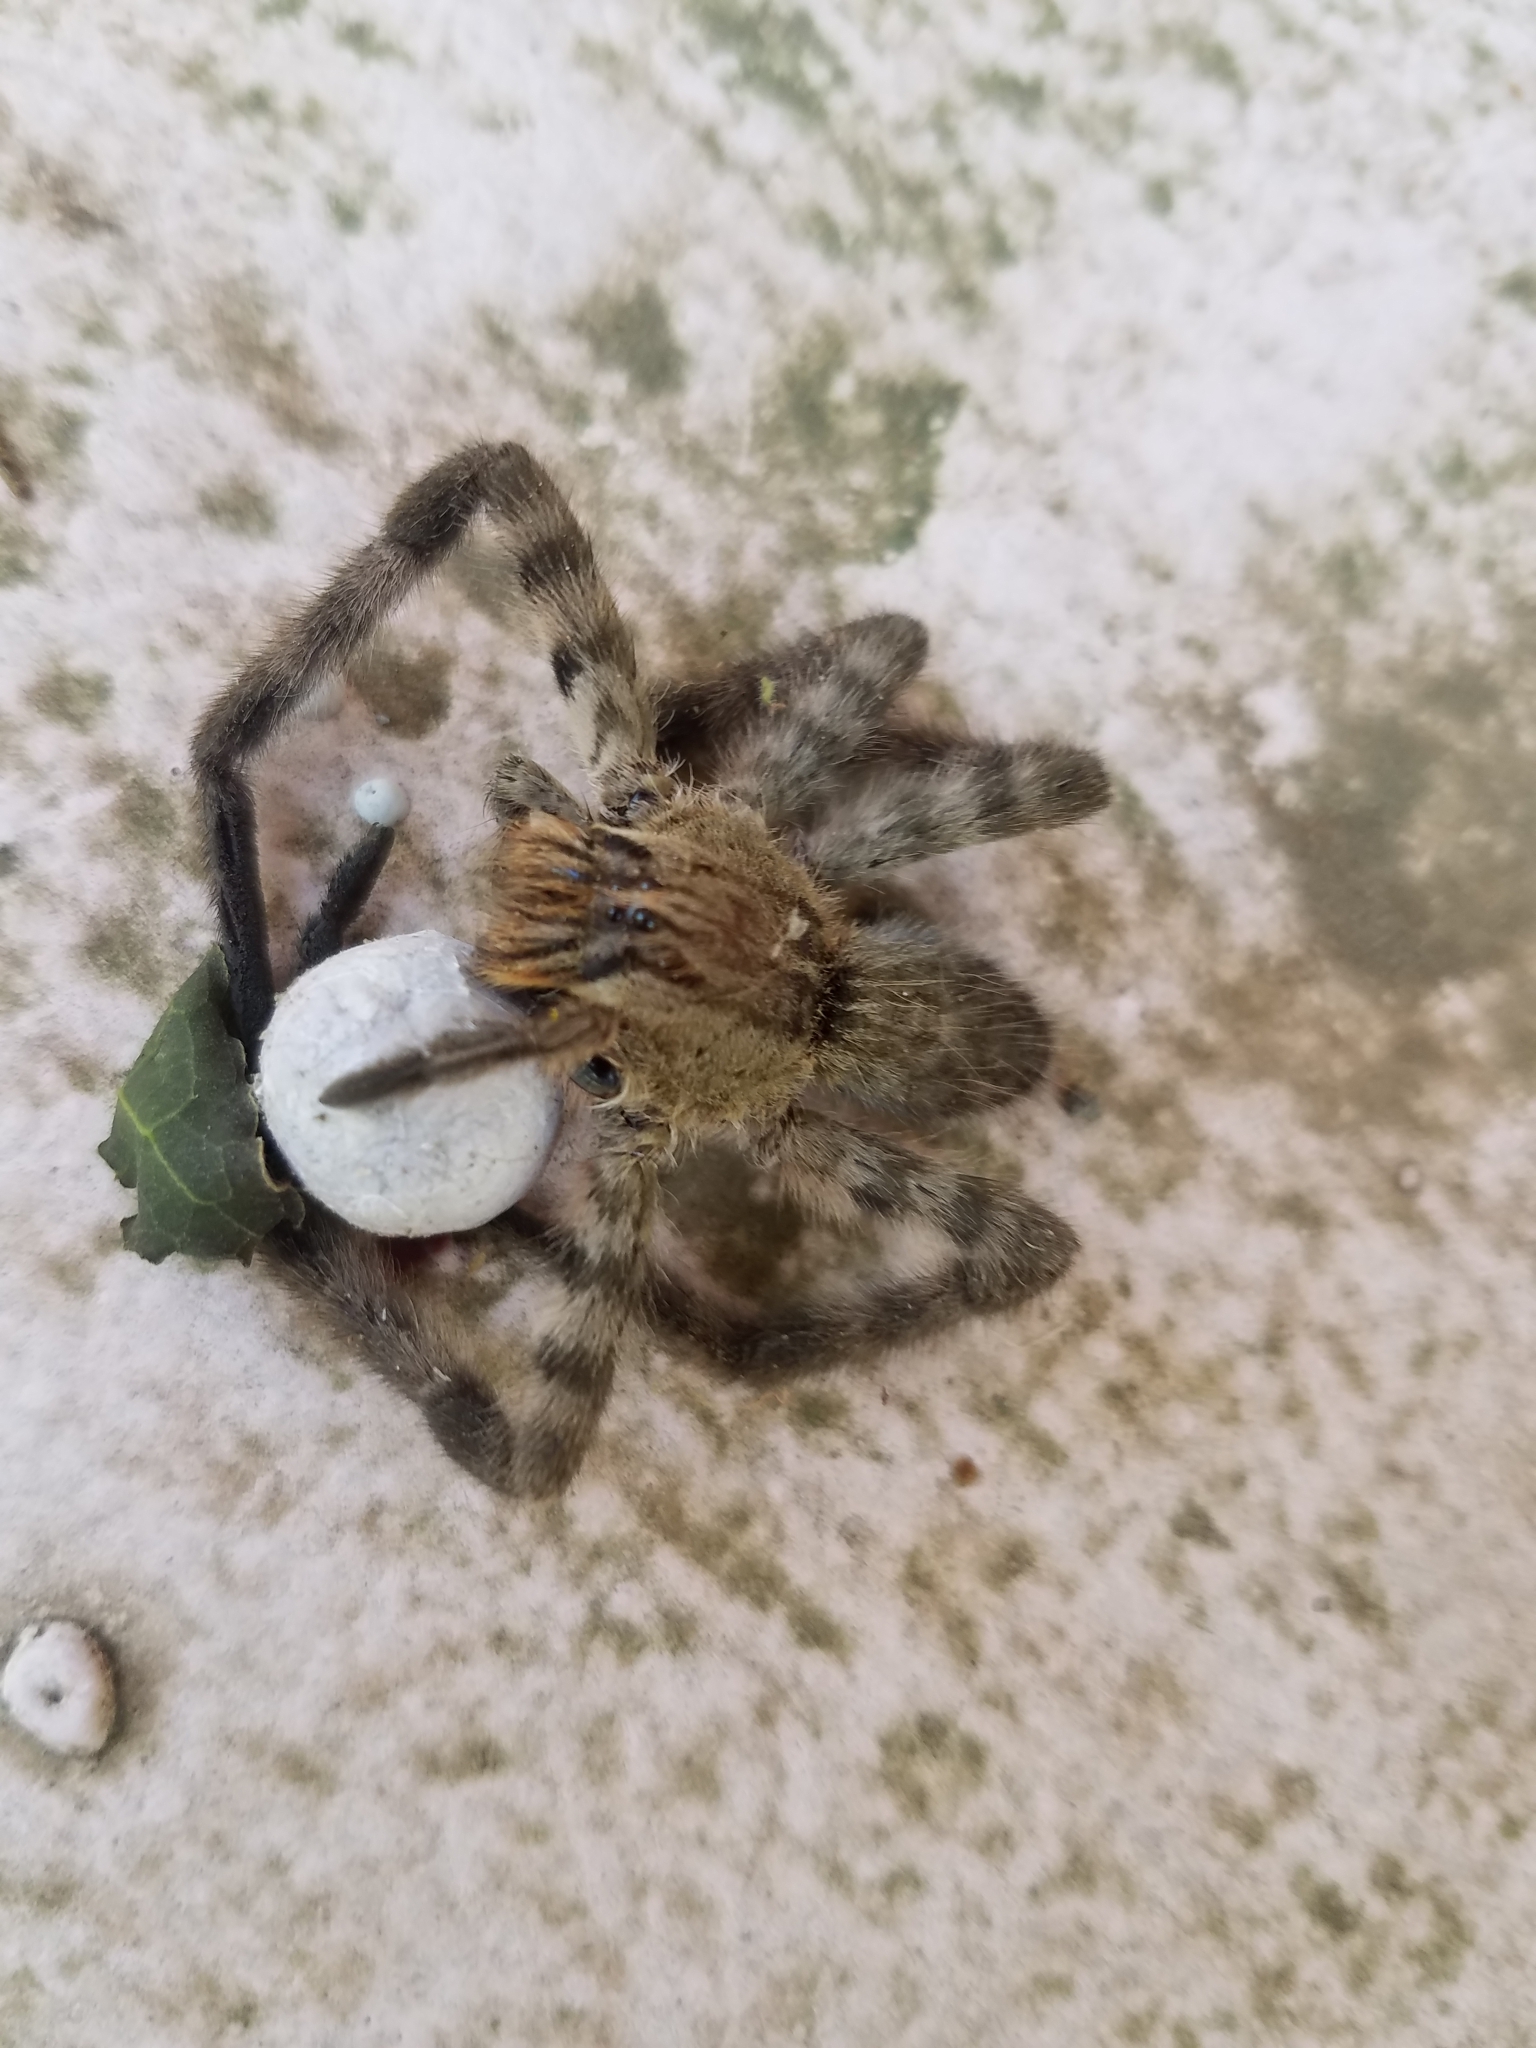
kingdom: Animalia
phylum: Arthropoda
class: Arachnida
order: Araneae
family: Trechaleidae
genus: Cupiennius
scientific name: Cupiennius salei
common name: Wandering spiders
